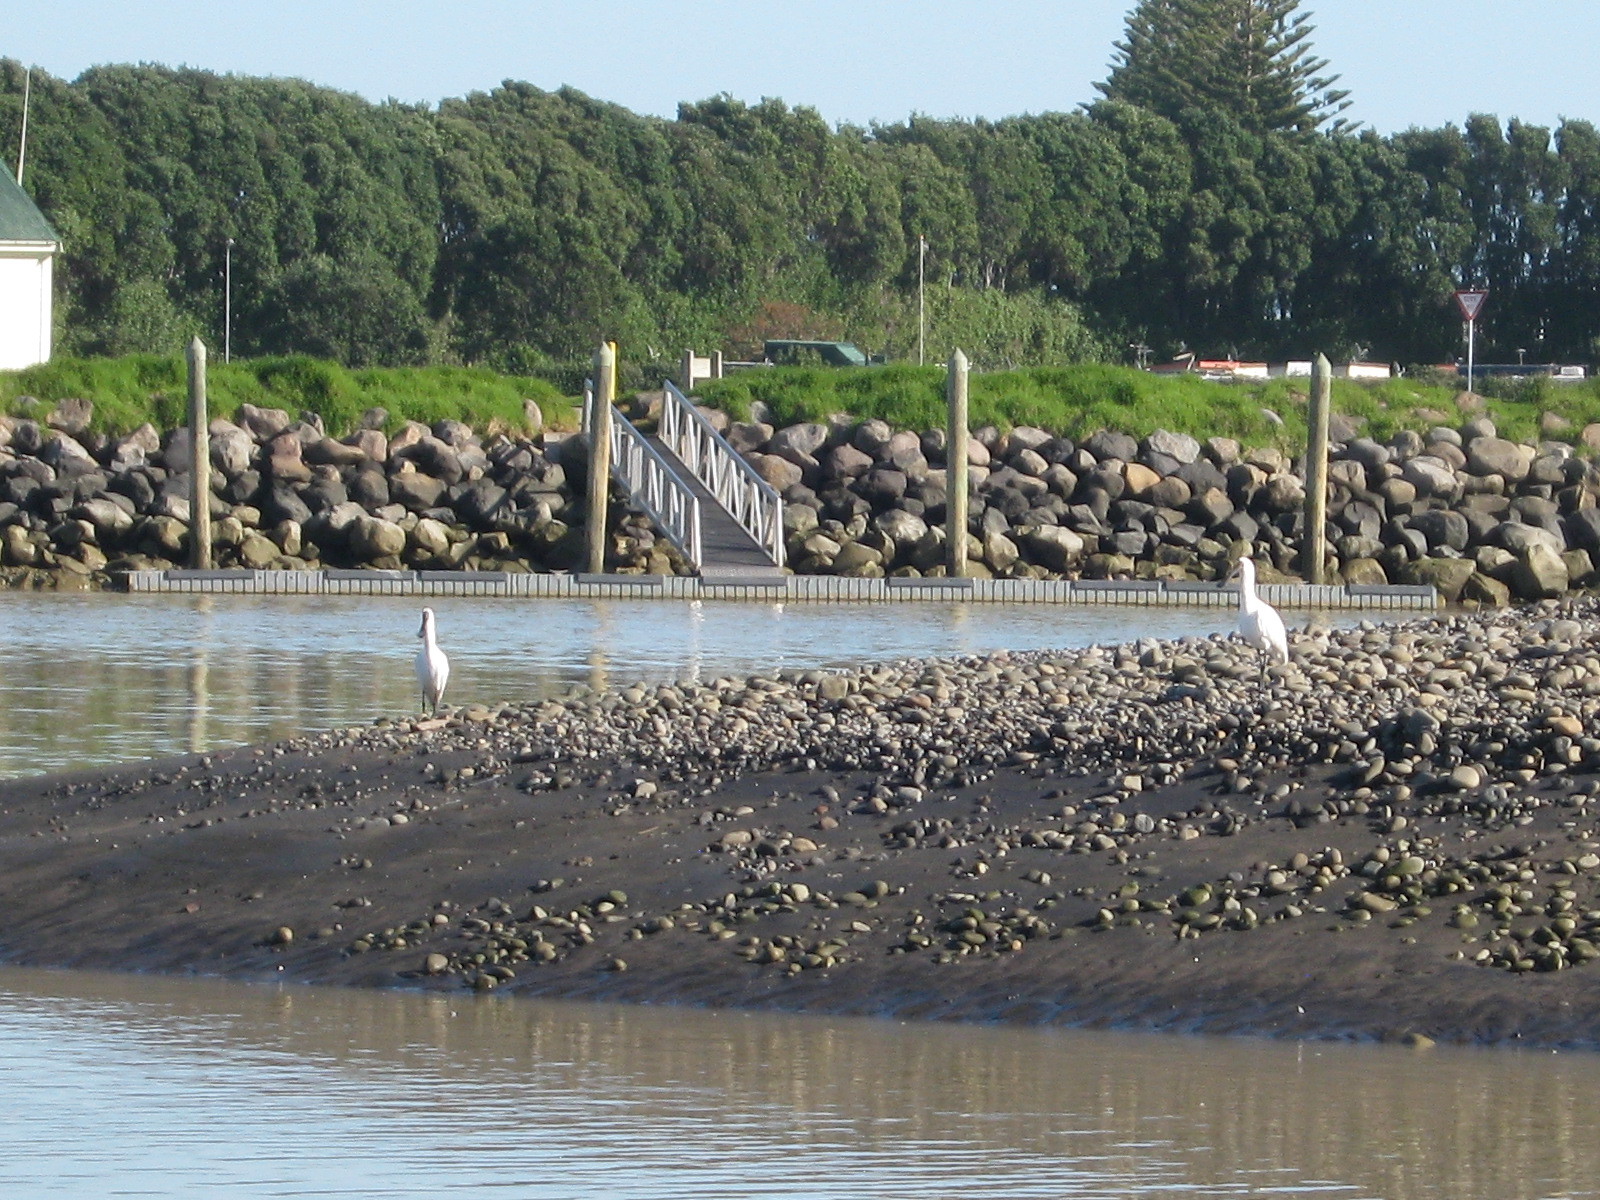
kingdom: Animalia
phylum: Chordata
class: Aves
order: Pelecaniformes
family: Threskiornithidae
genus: Platalea
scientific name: Platalea regia
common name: Royal spoonbill
